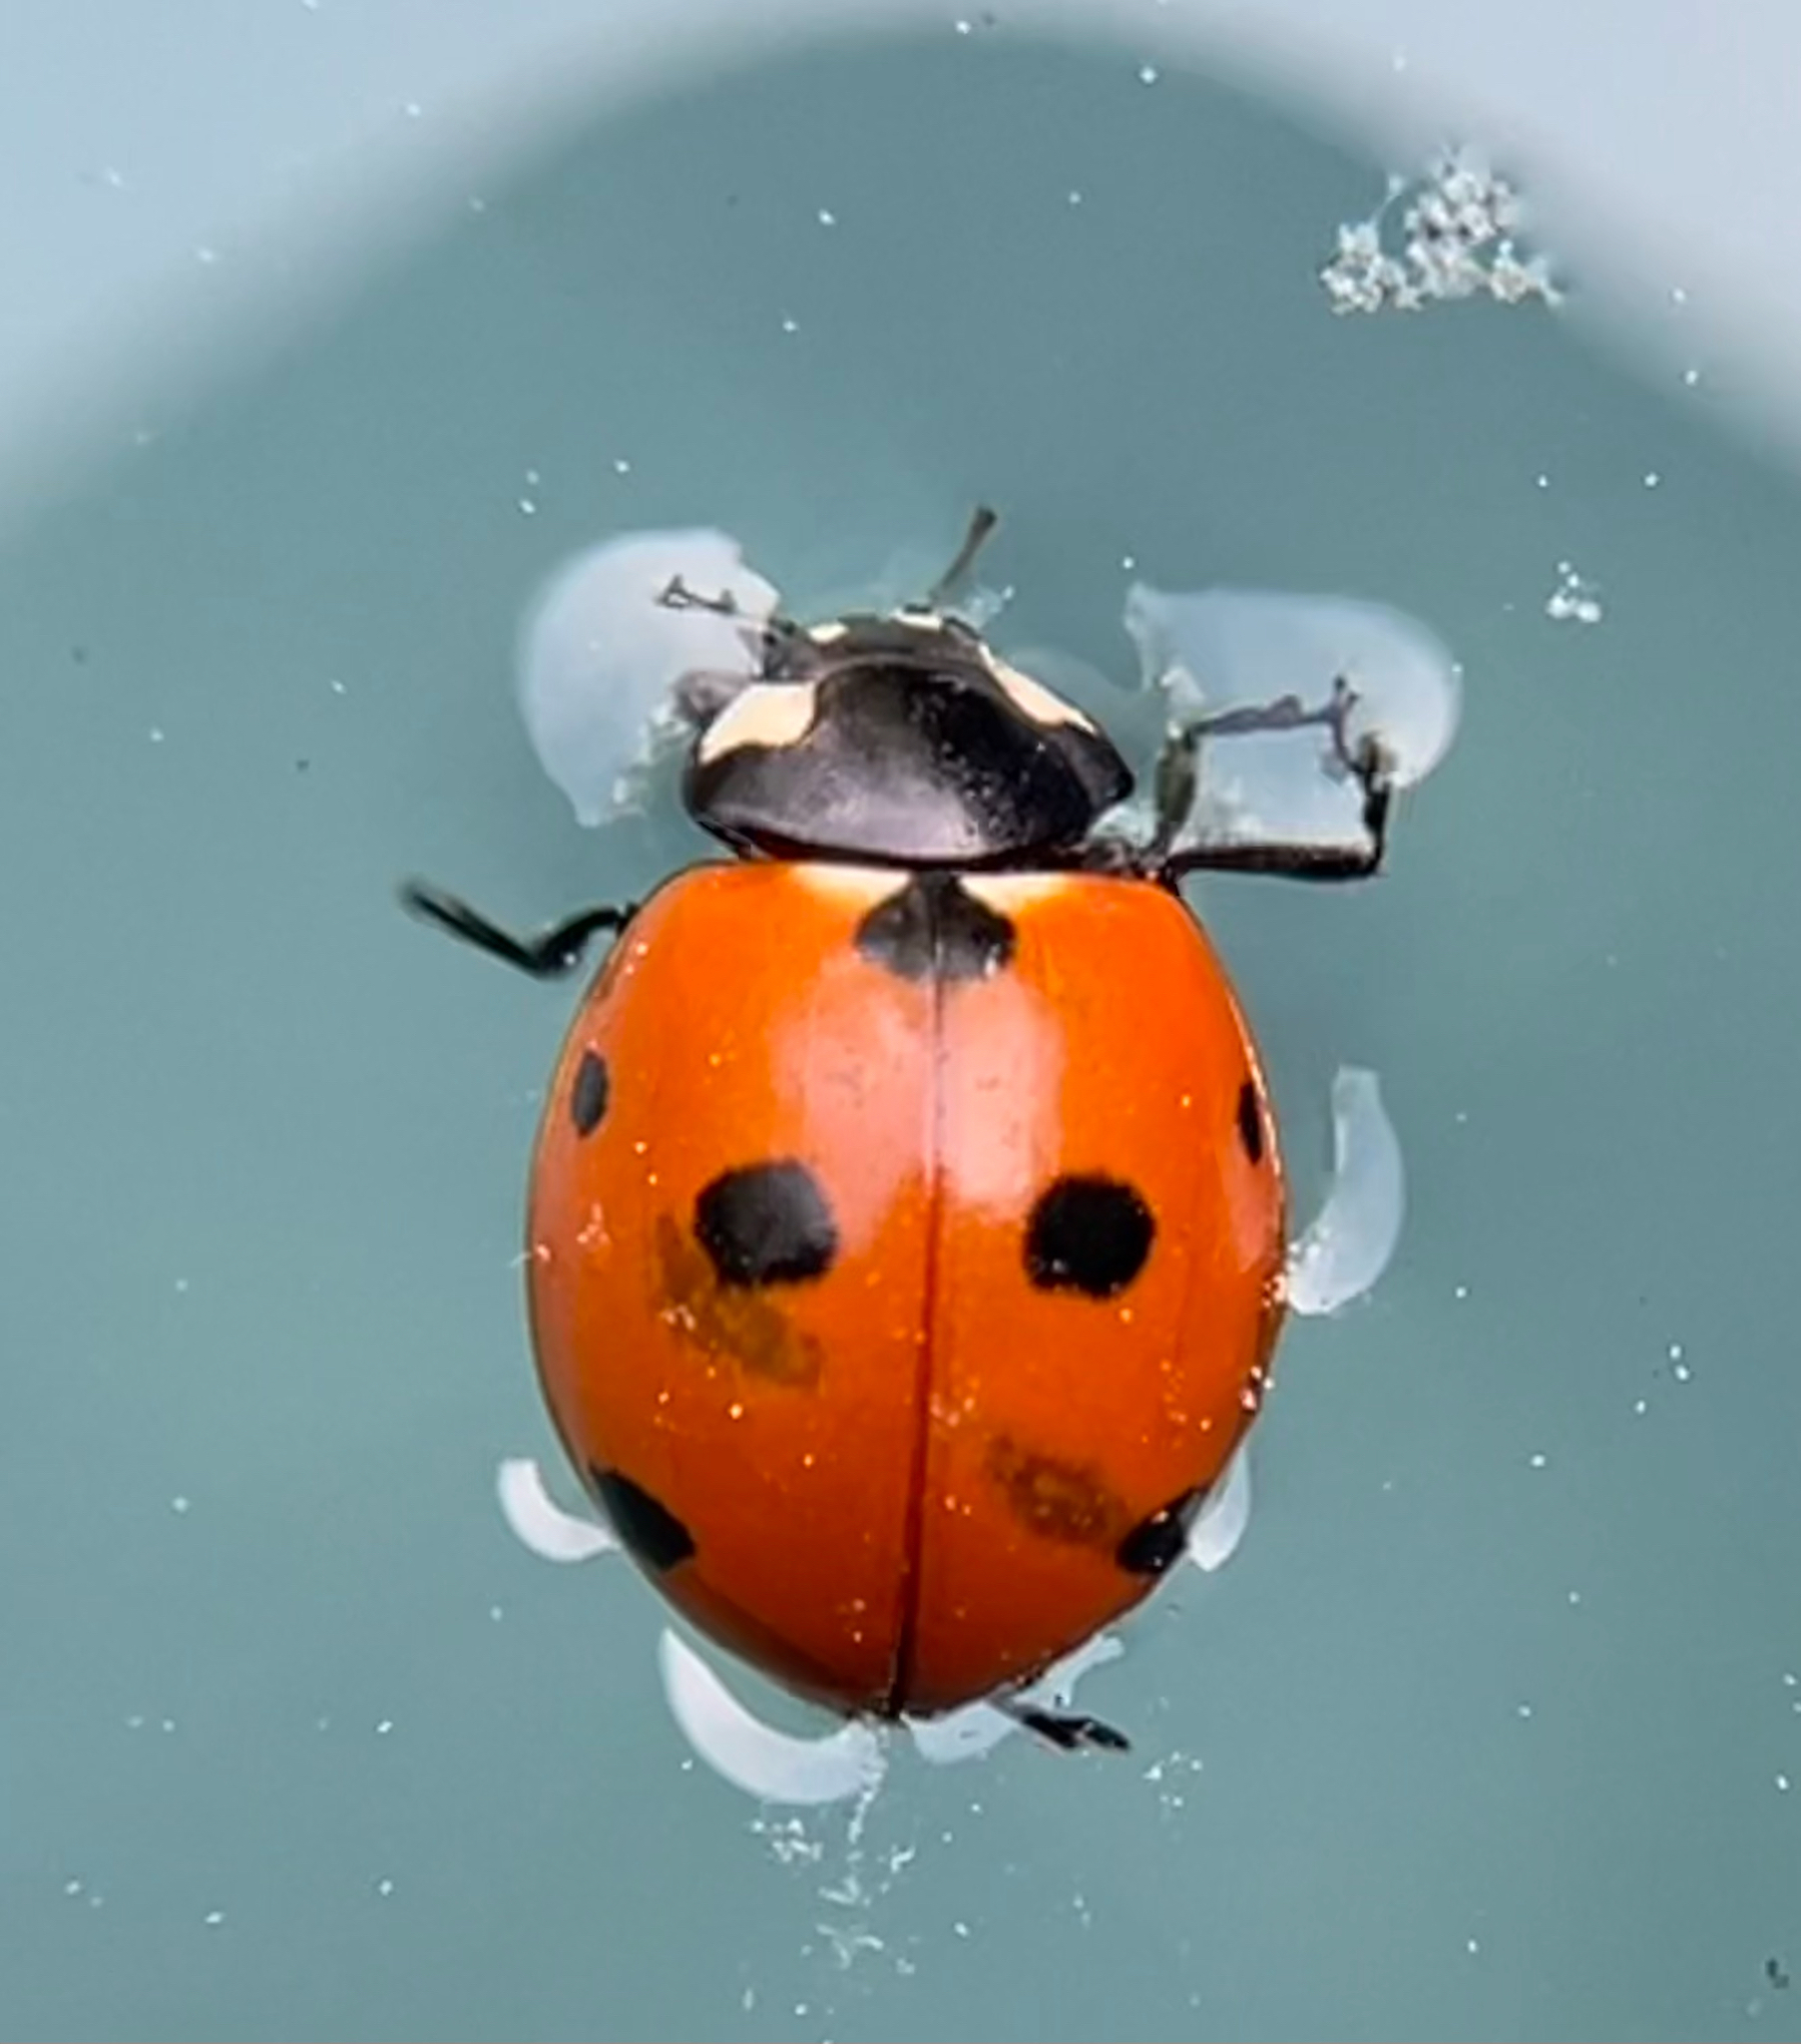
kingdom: Animalia
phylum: Arthropoda
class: Insecta
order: Coleoptera
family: Coccinellidae
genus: Coccinella
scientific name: Coccinella septempunctata
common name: Sevenspotted lady beetle
